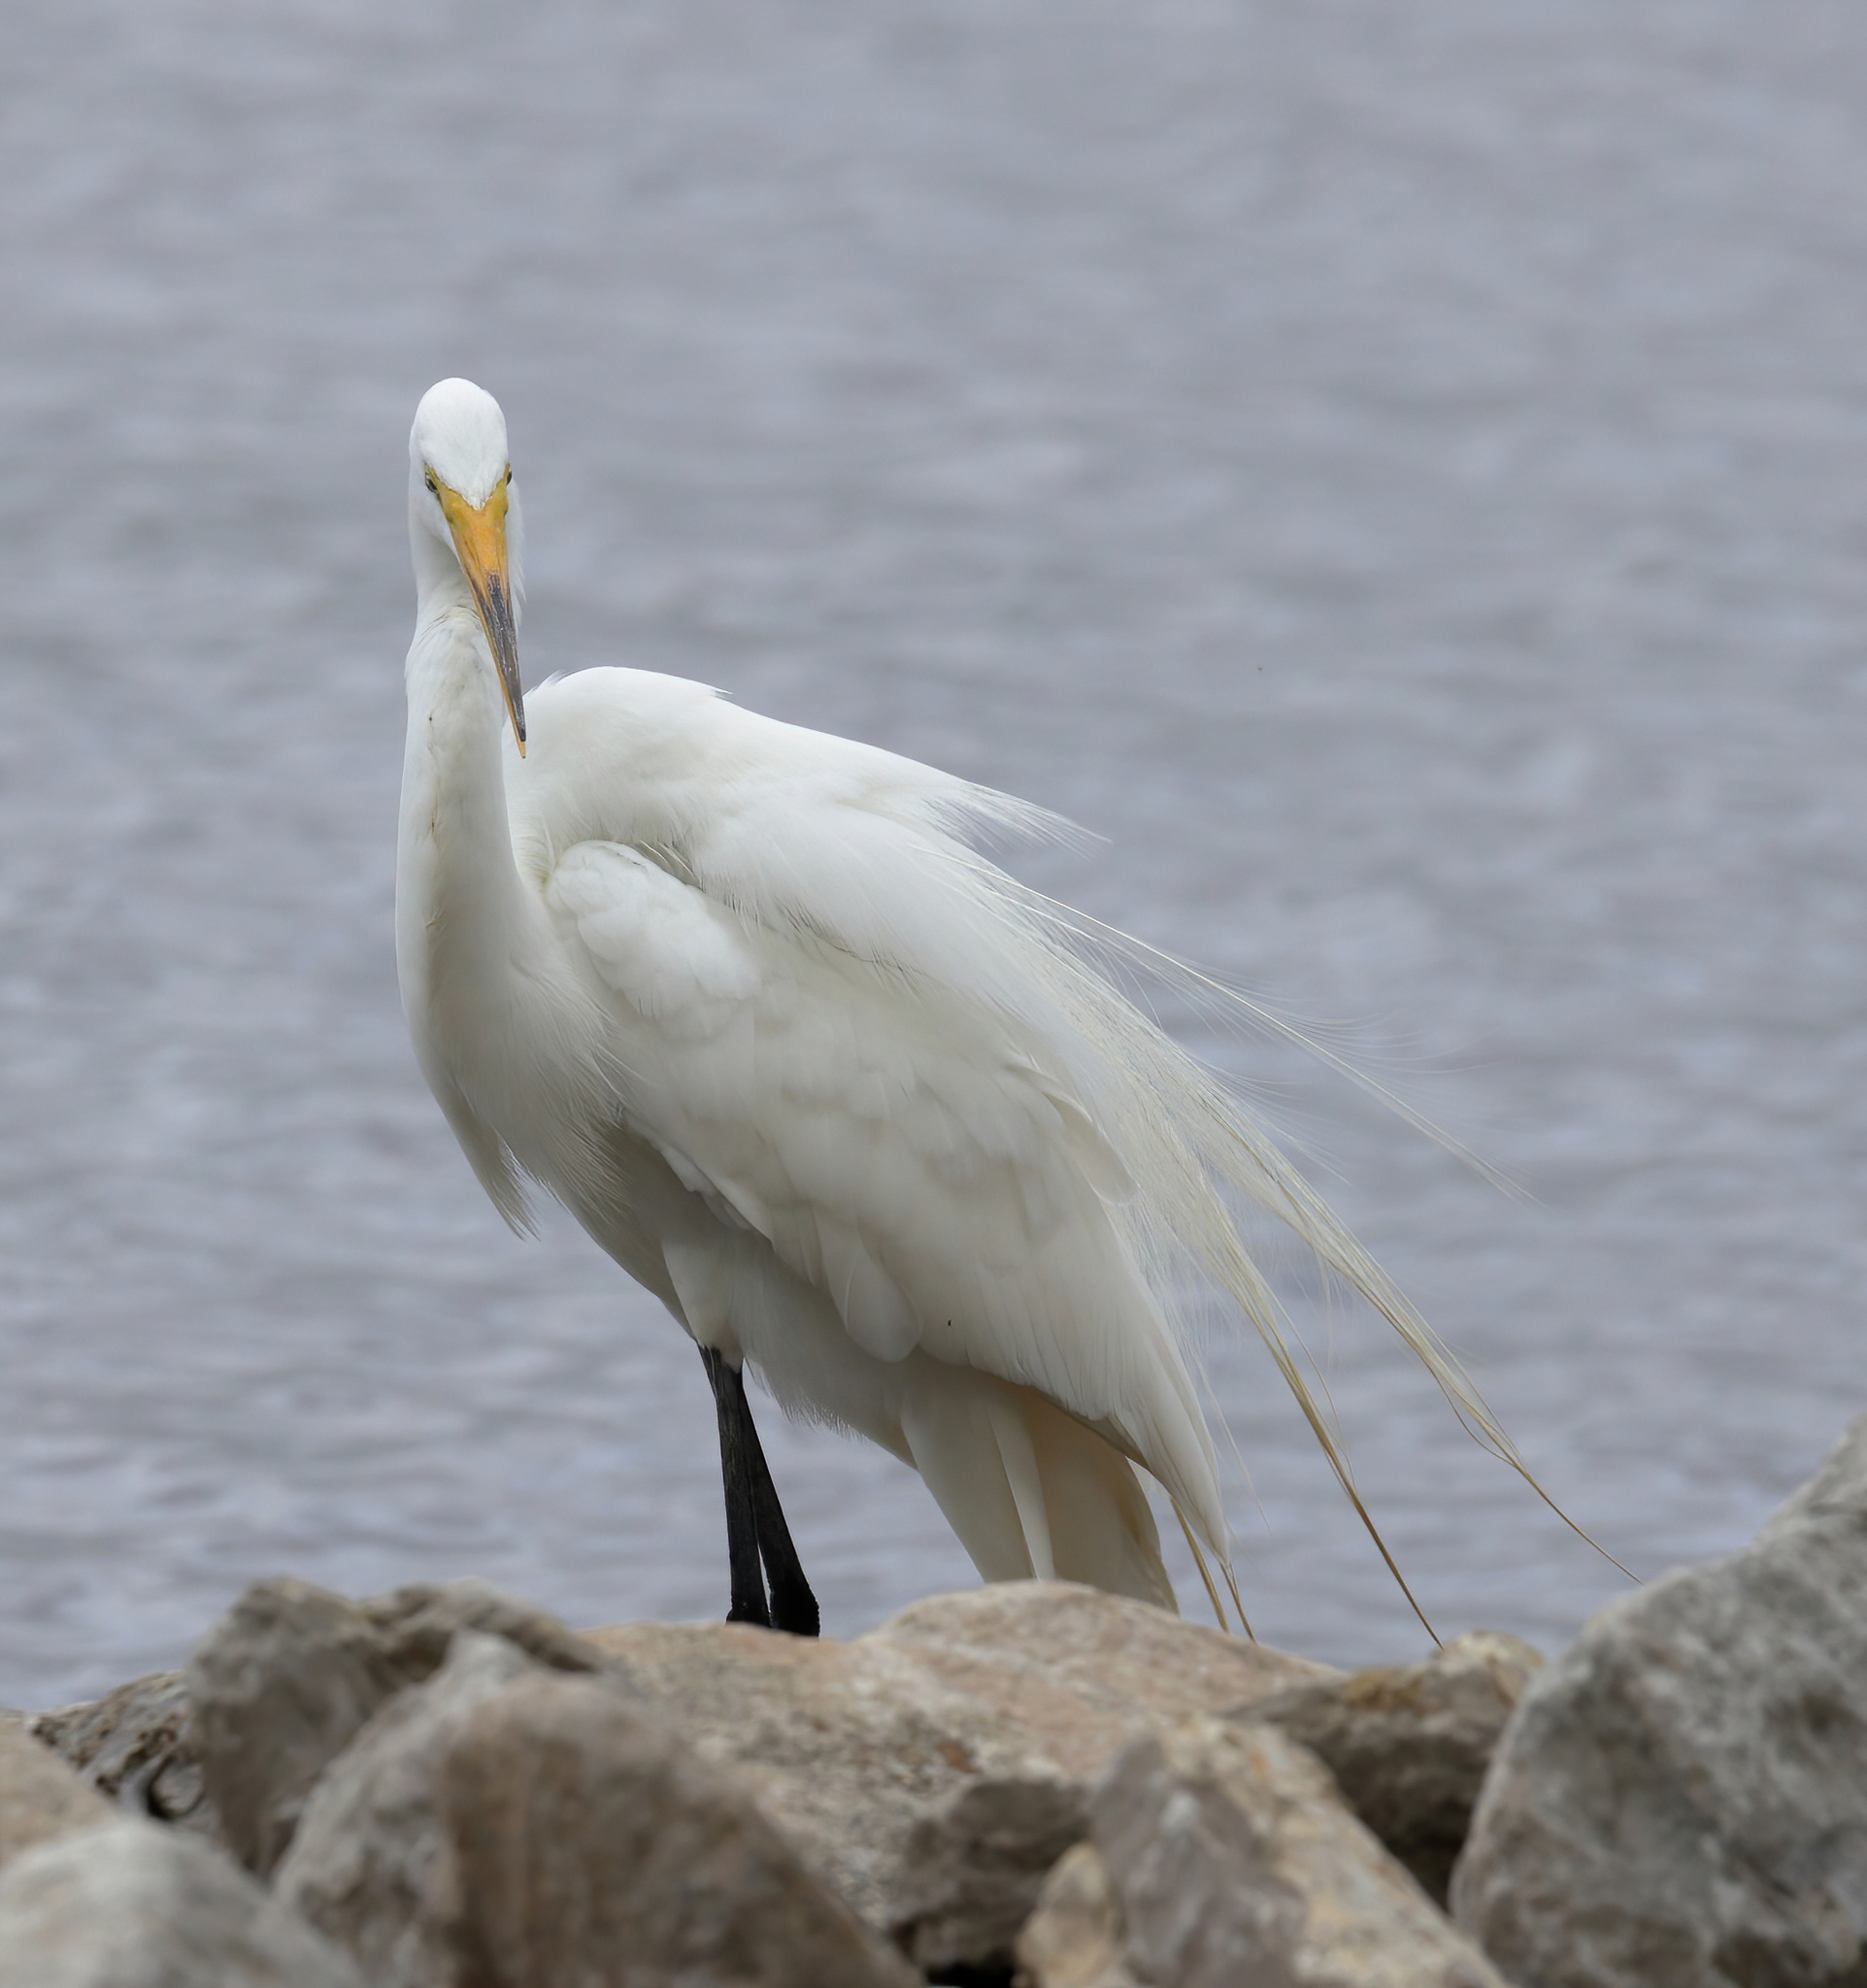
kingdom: Animalia
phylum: Chordata
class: Aves
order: Pelecaniformes
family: Ardeidae
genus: Ardea
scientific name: Ardea alba
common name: Great egret
